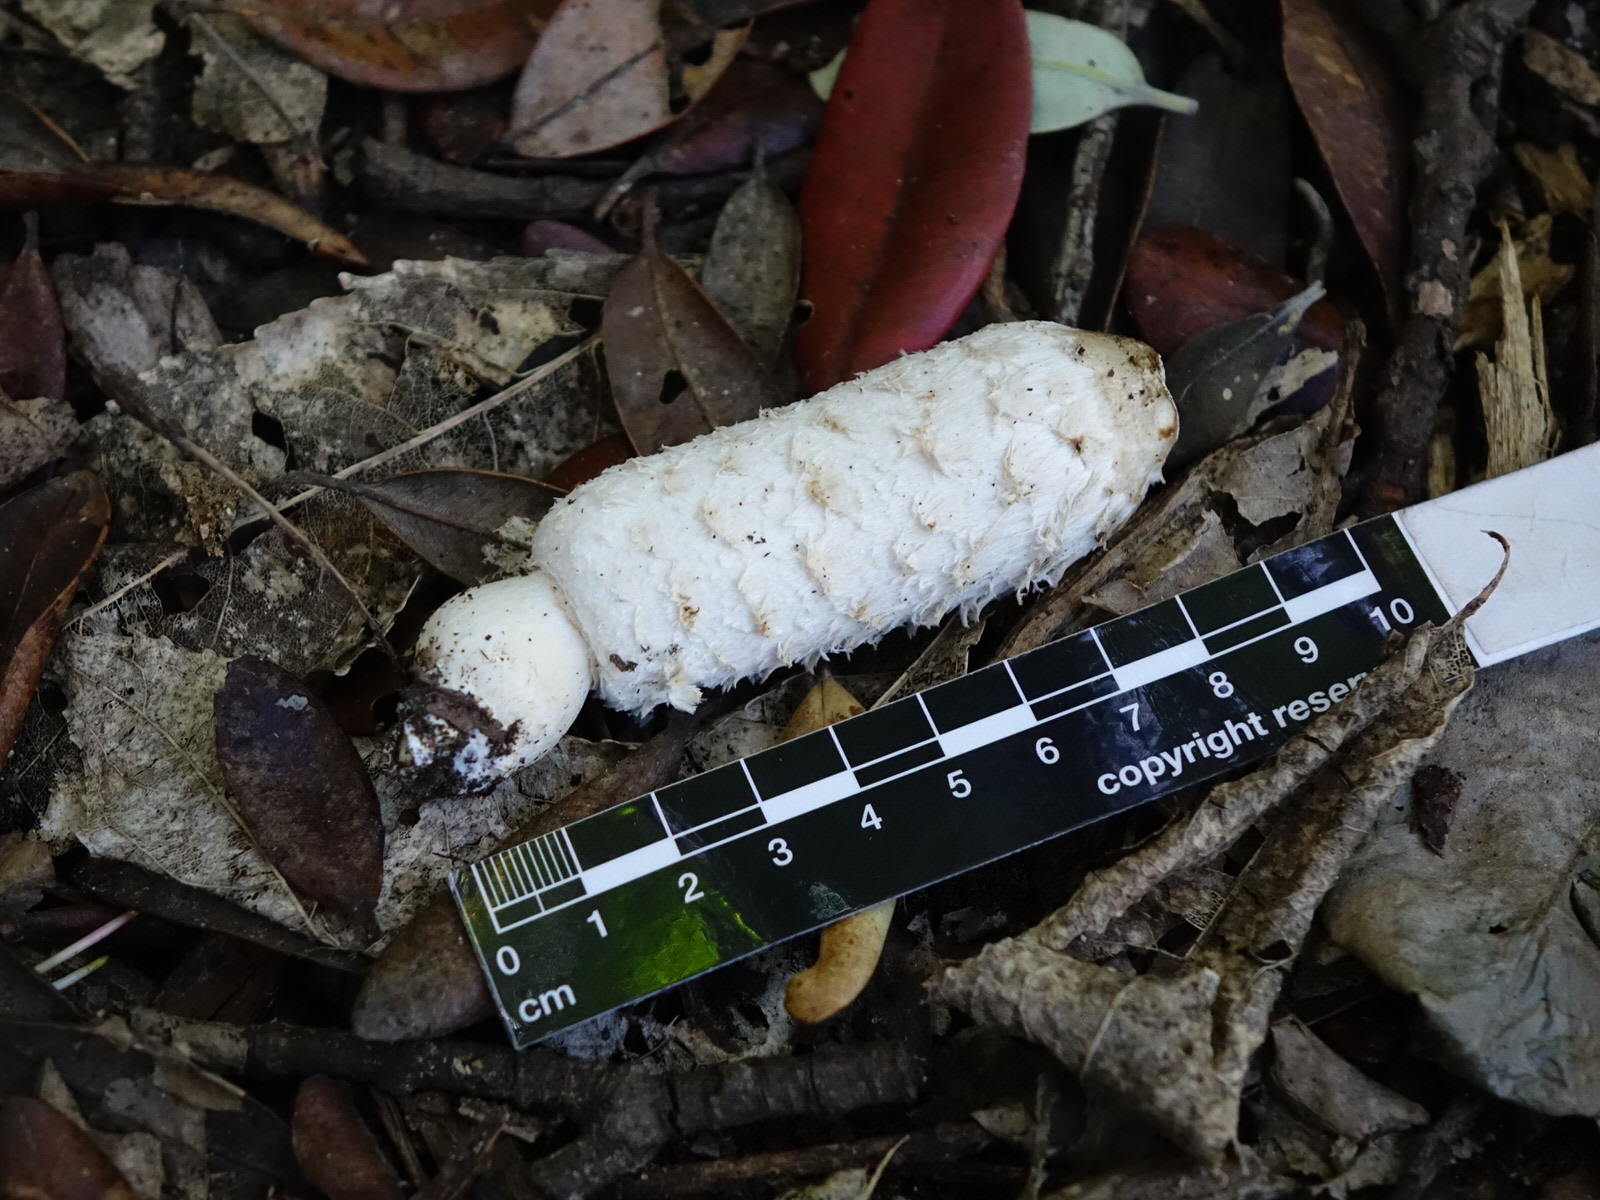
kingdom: Fungi
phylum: Basidiomycota
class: Agaricomycetes
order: Agaricales
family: Agaricaceae
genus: Coprinus
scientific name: Coprinus comatus
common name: Lawyer's wig
